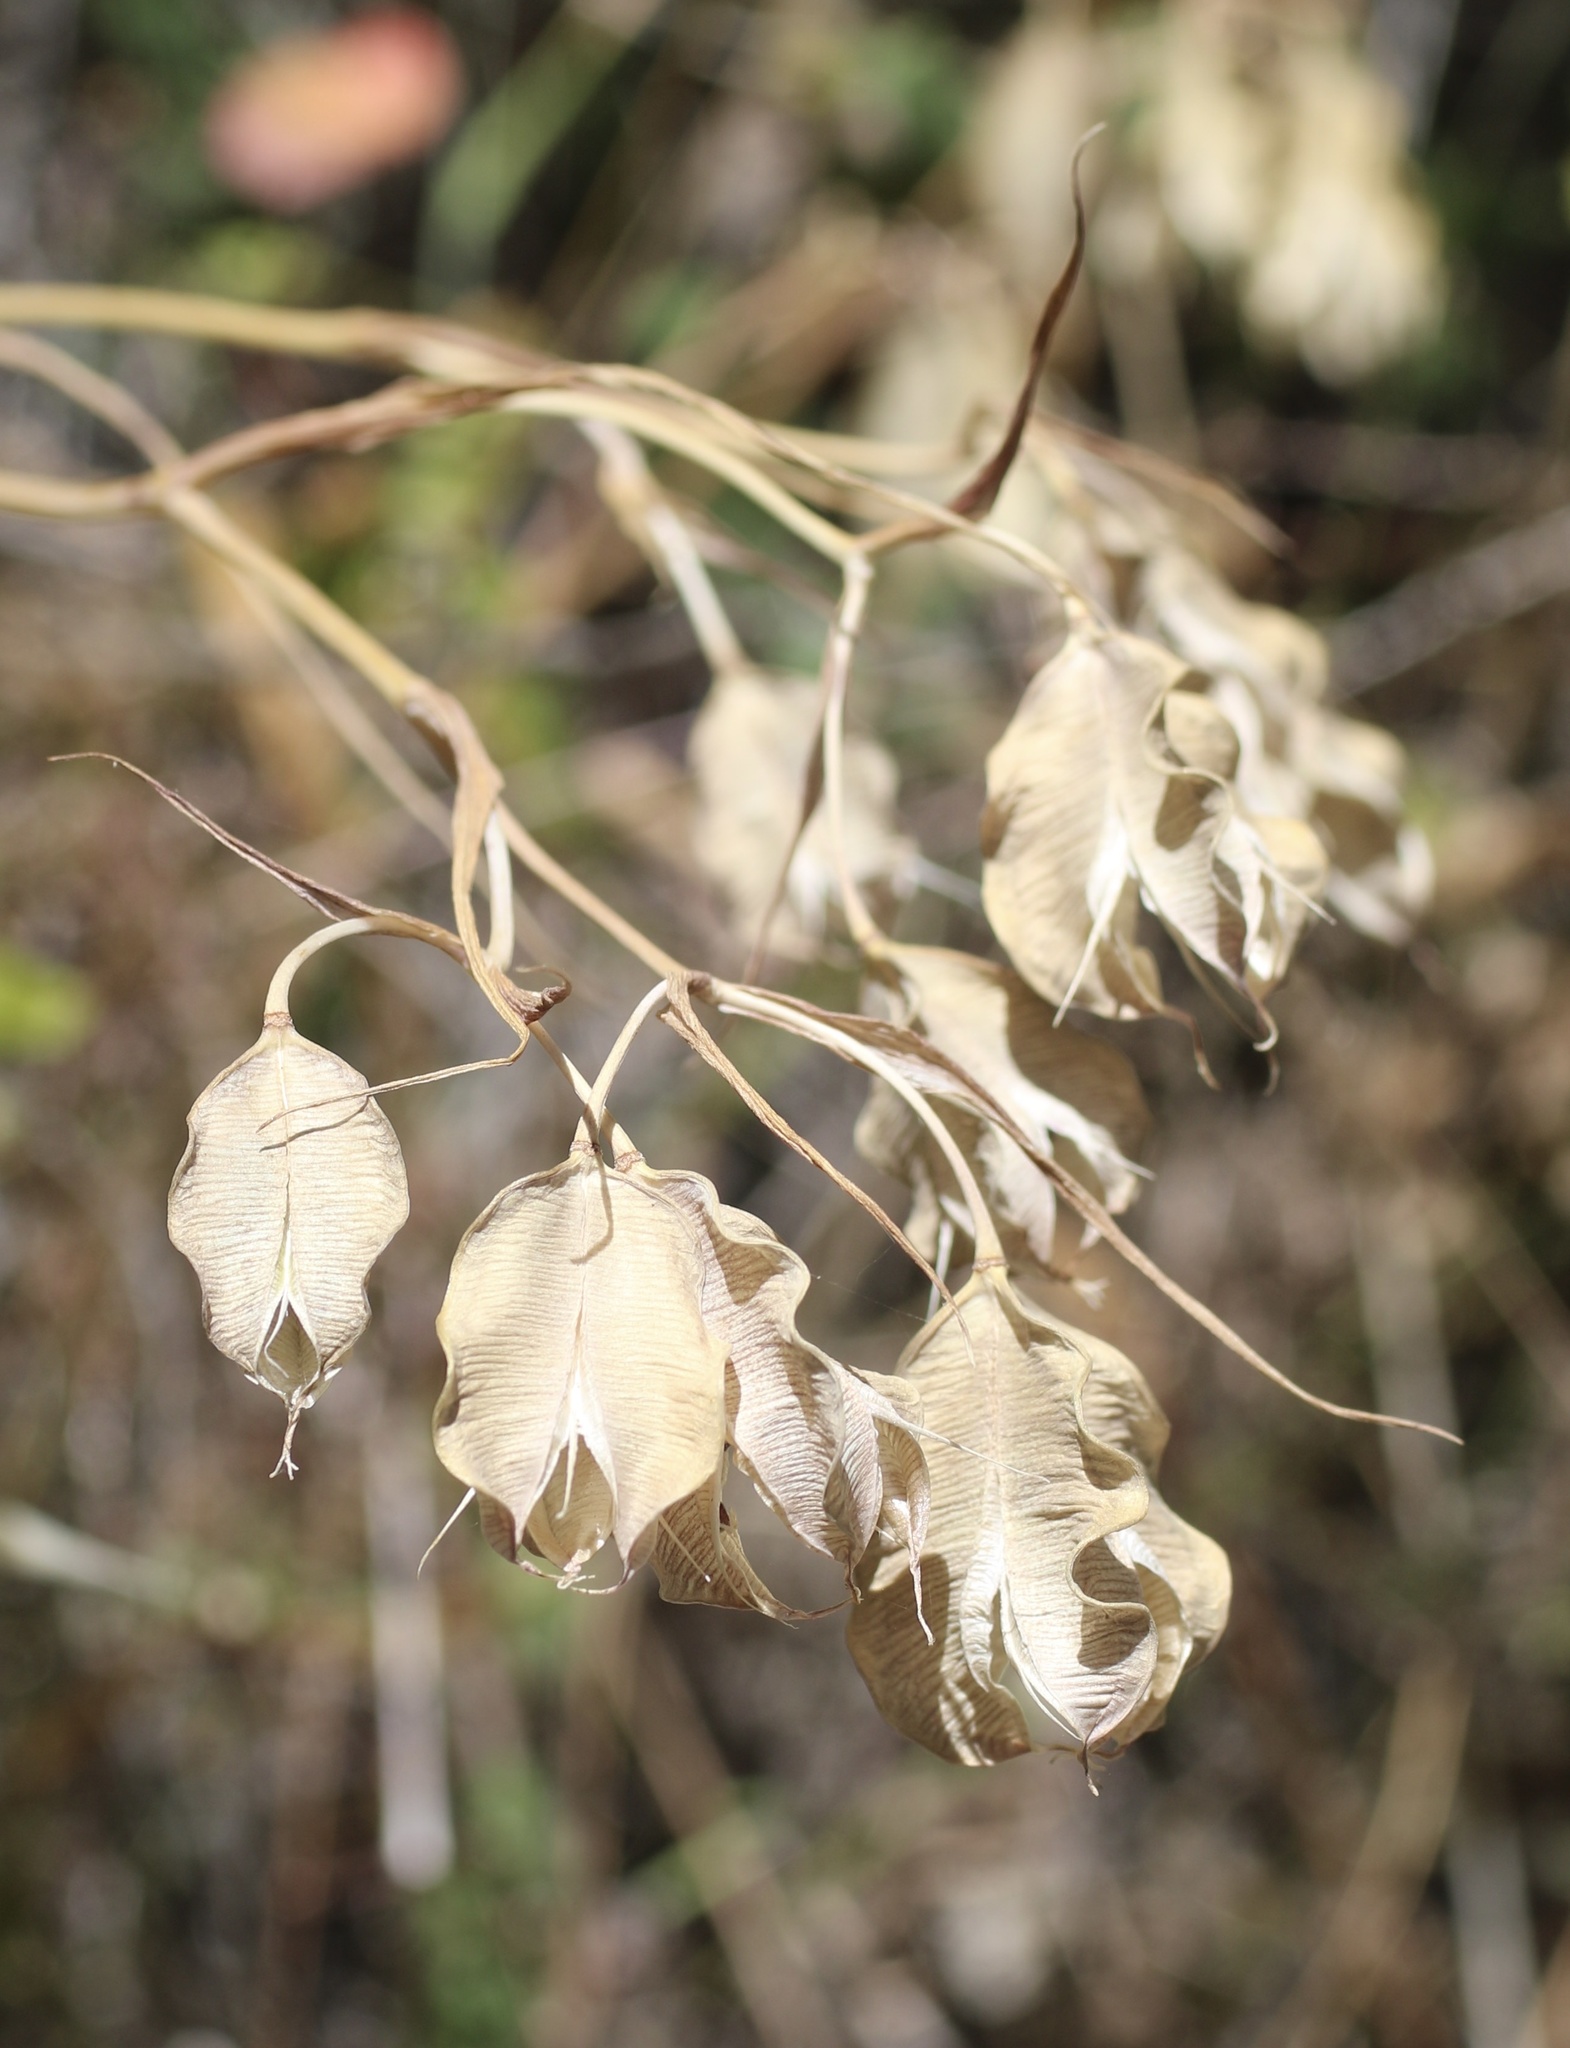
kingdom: Plantae
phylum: Tracheophyta
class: Liliopsida
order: Liliales
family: Liliaceae
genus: Calochortus
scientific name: Calochortus albus
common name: Fairy-lantern
